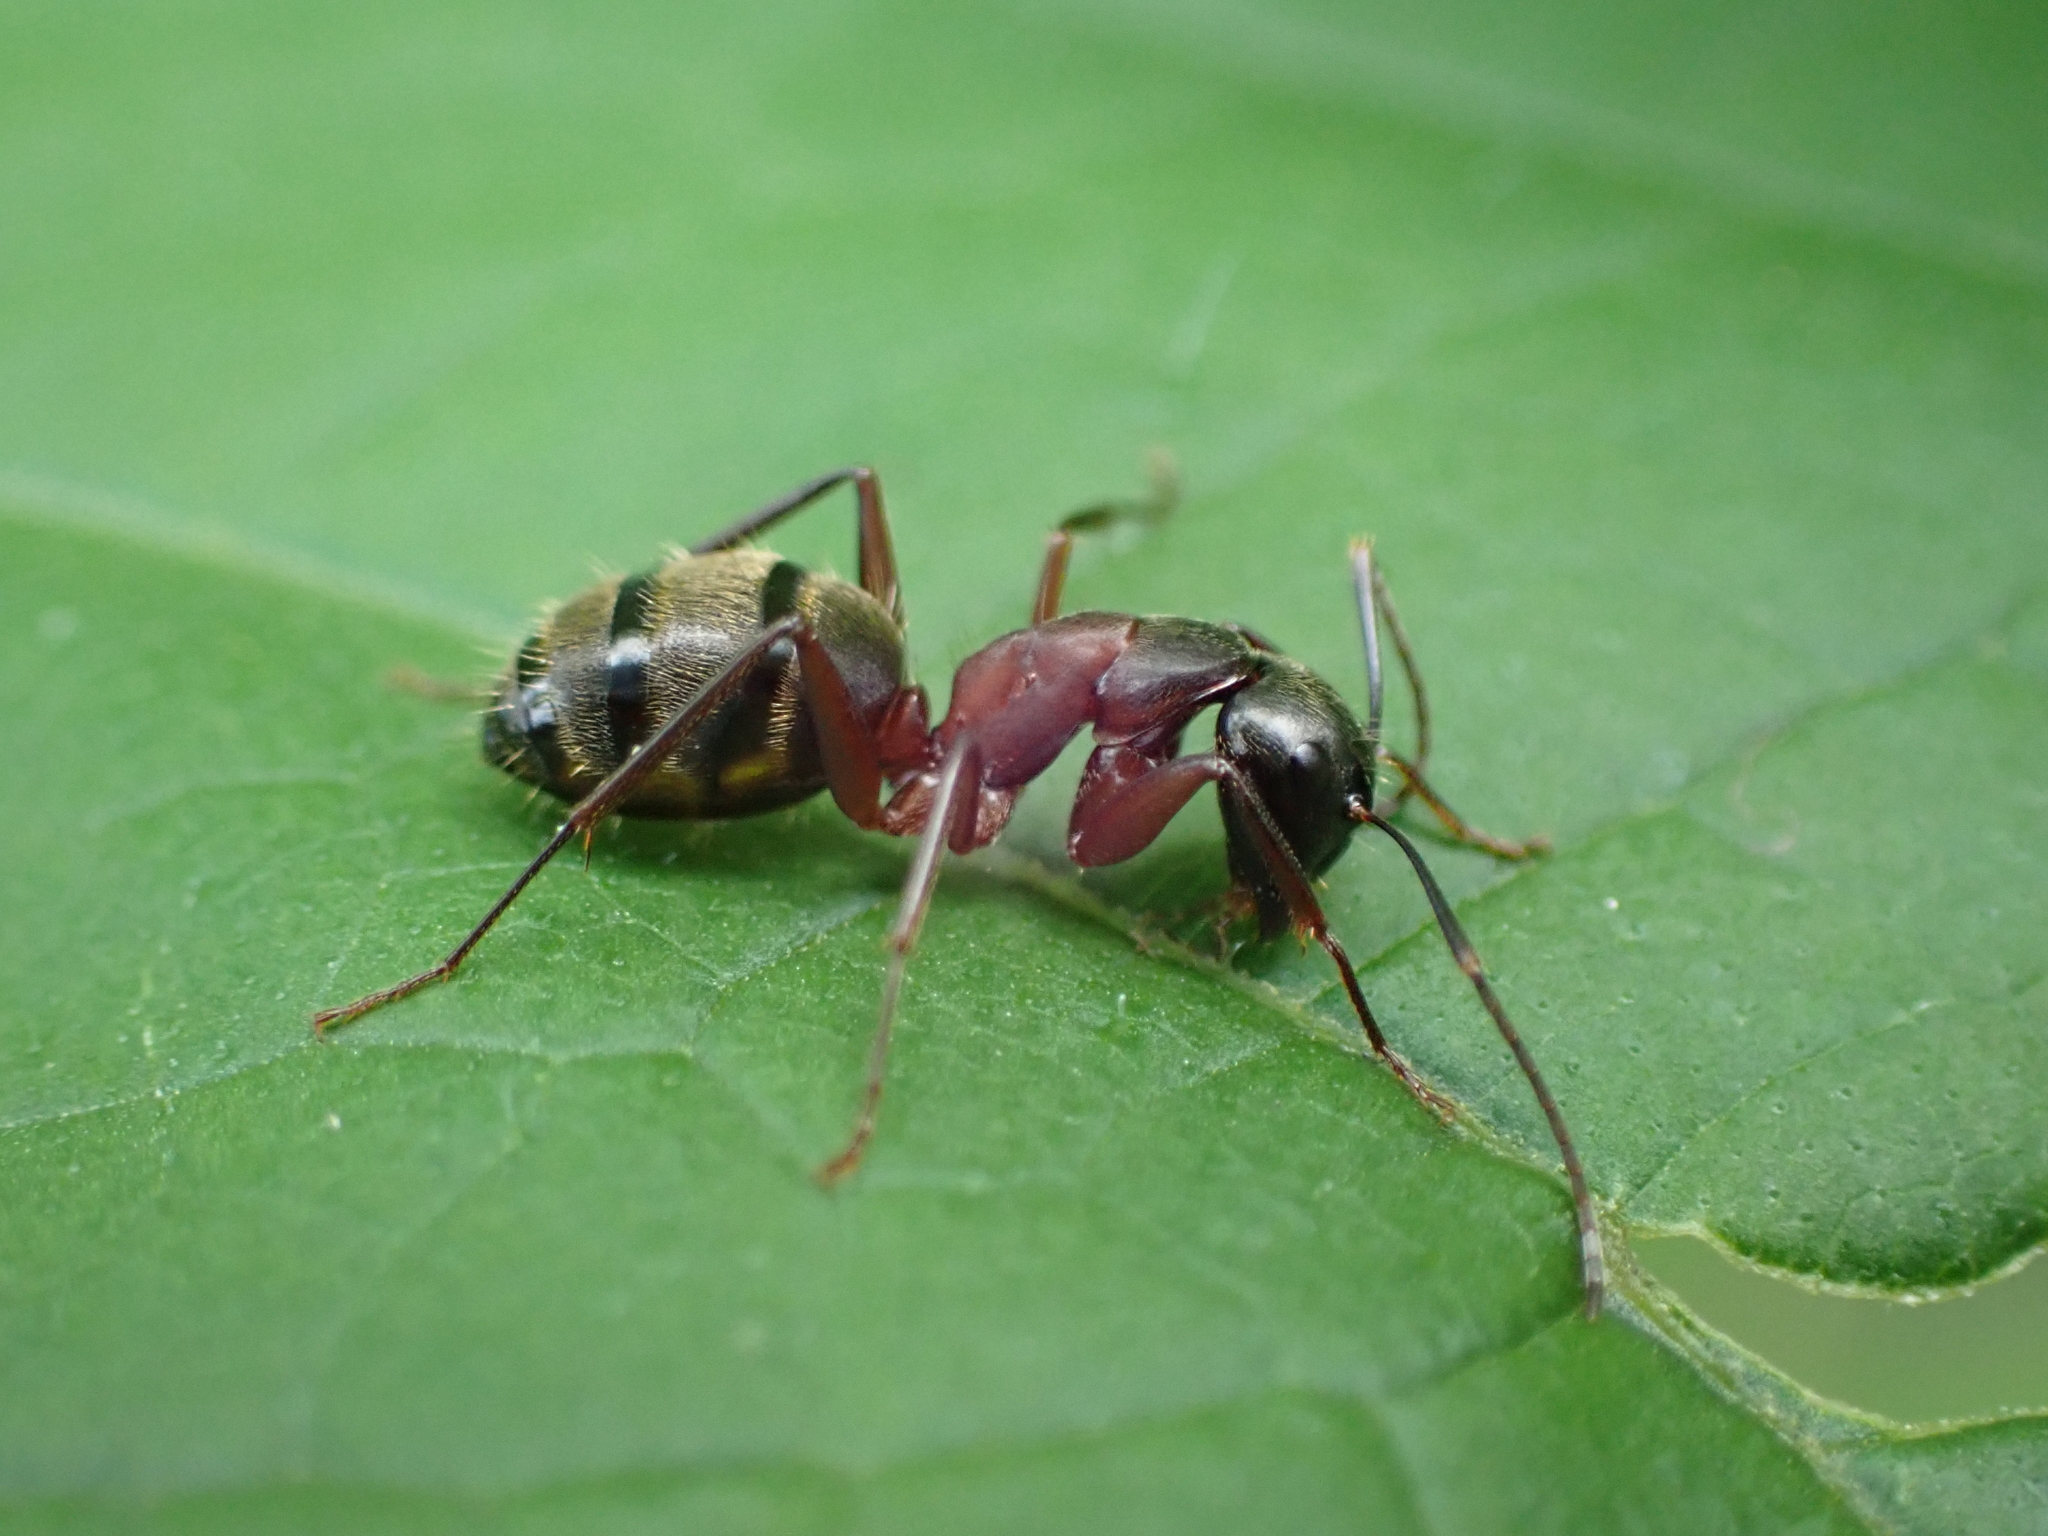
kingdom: Animalia
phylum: Arthropoda
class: Insecta
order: Hymenoptera
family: Formicidae
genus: Camponotus
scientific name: Camponotus chromaiodes
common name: Red carpenter ant
